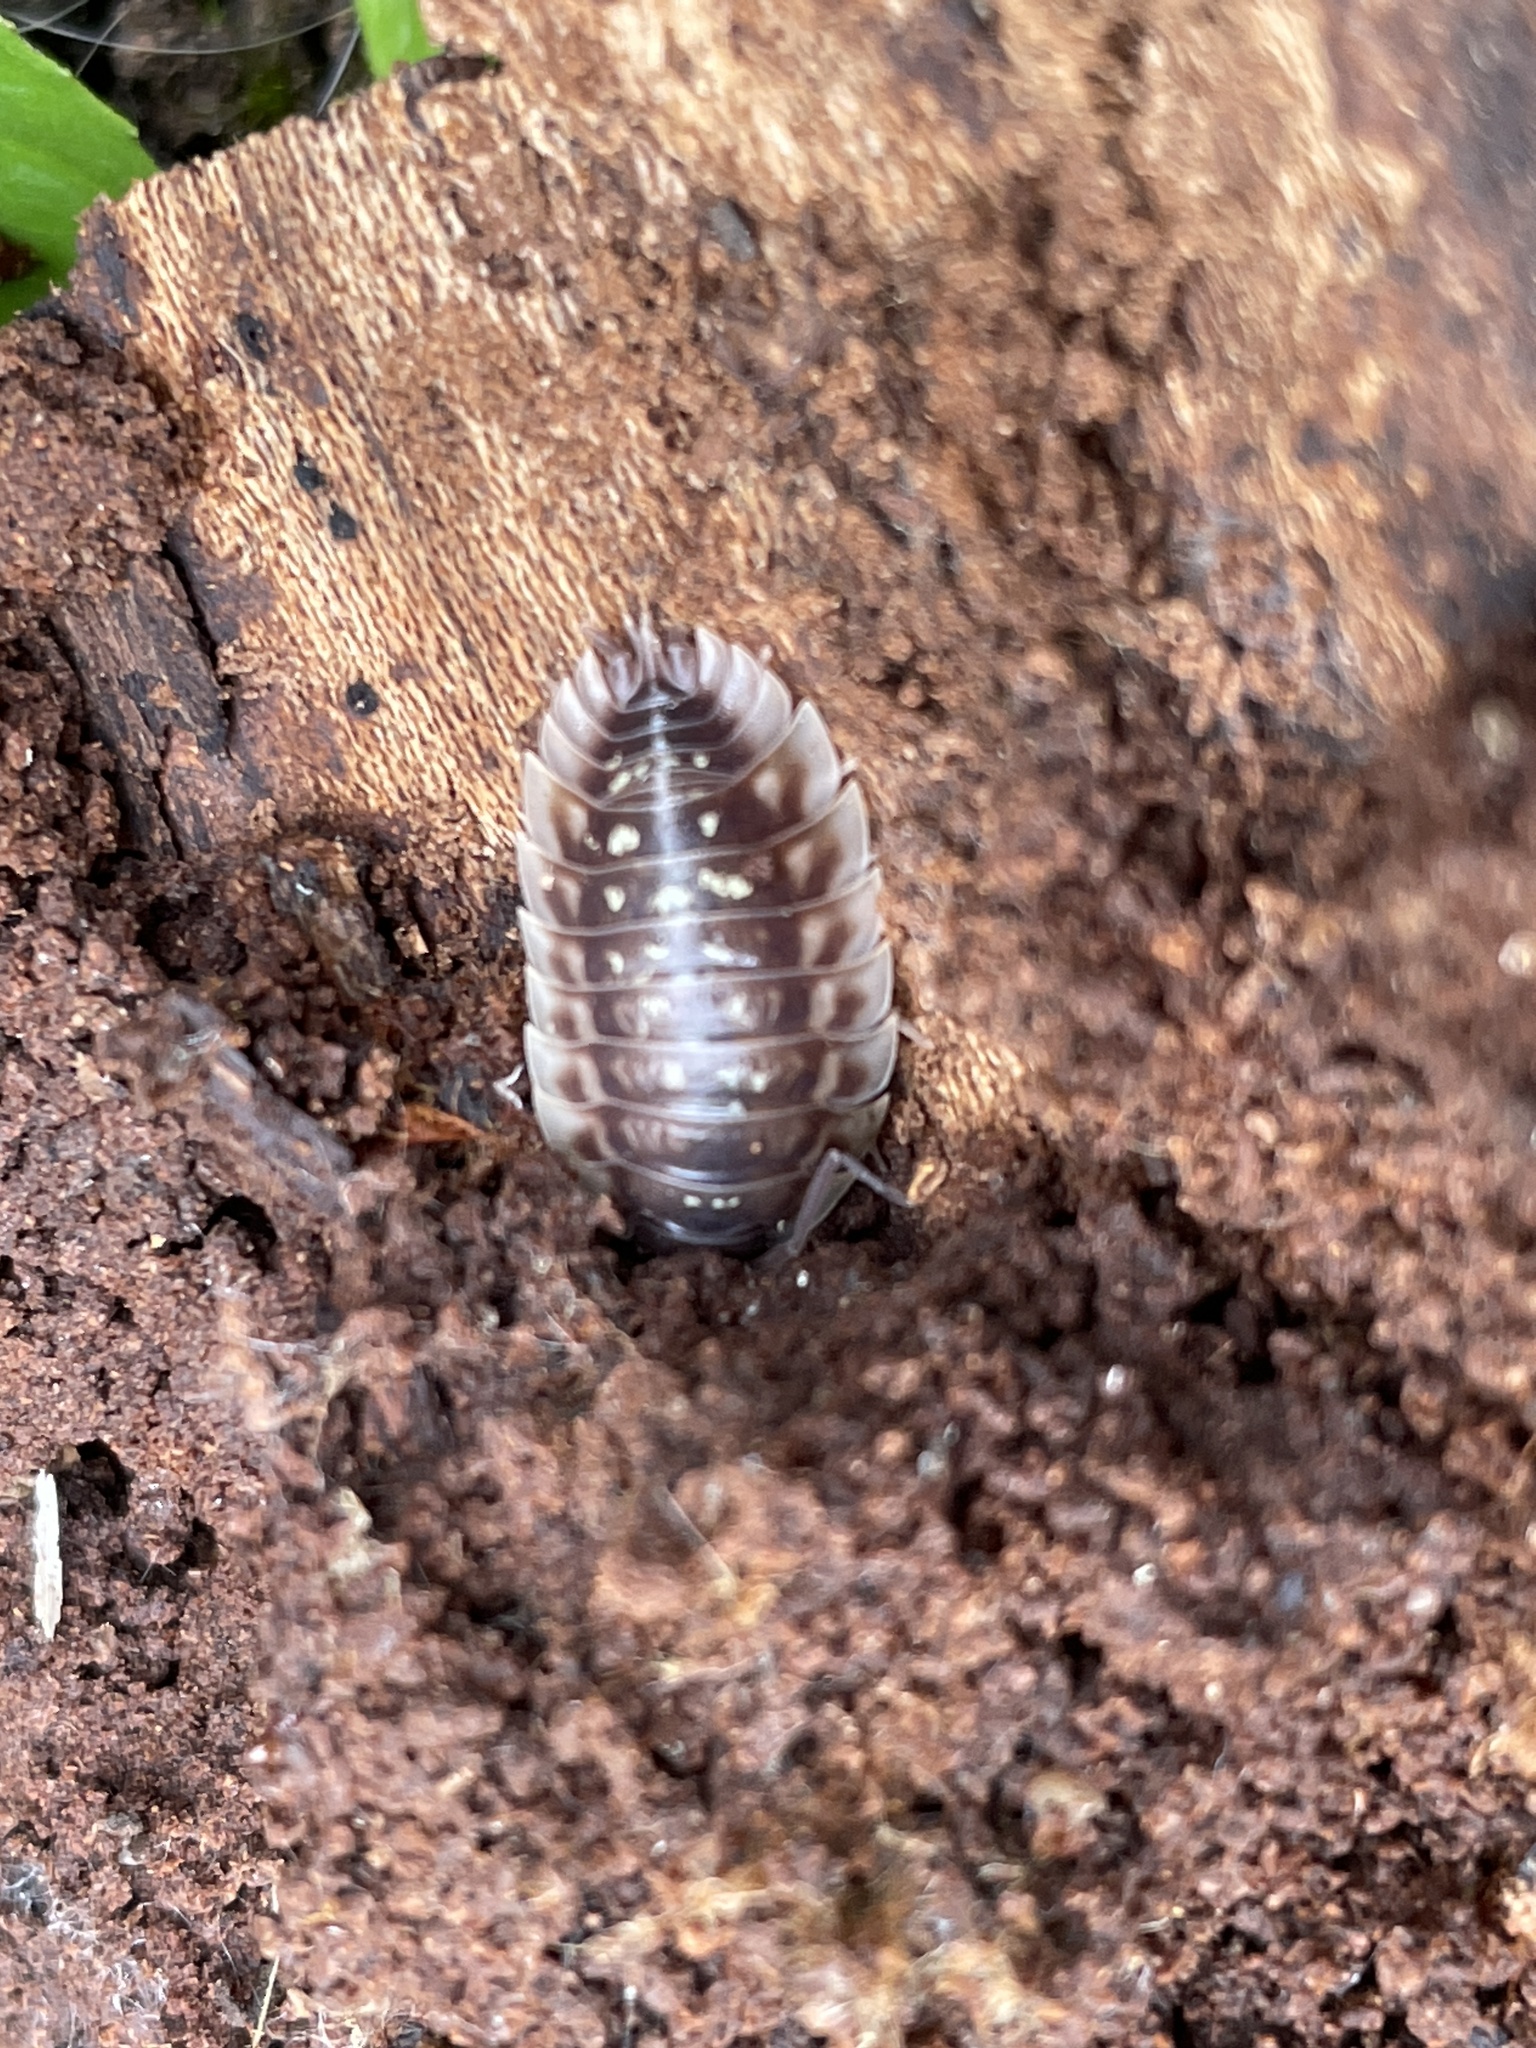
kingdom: Animalia
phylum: Arthropoda
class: Malacostraca
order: Isopoda
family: Oniscidae
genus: Oniscus
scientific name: Oniscus asellus
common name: Common shiny woodlouse
